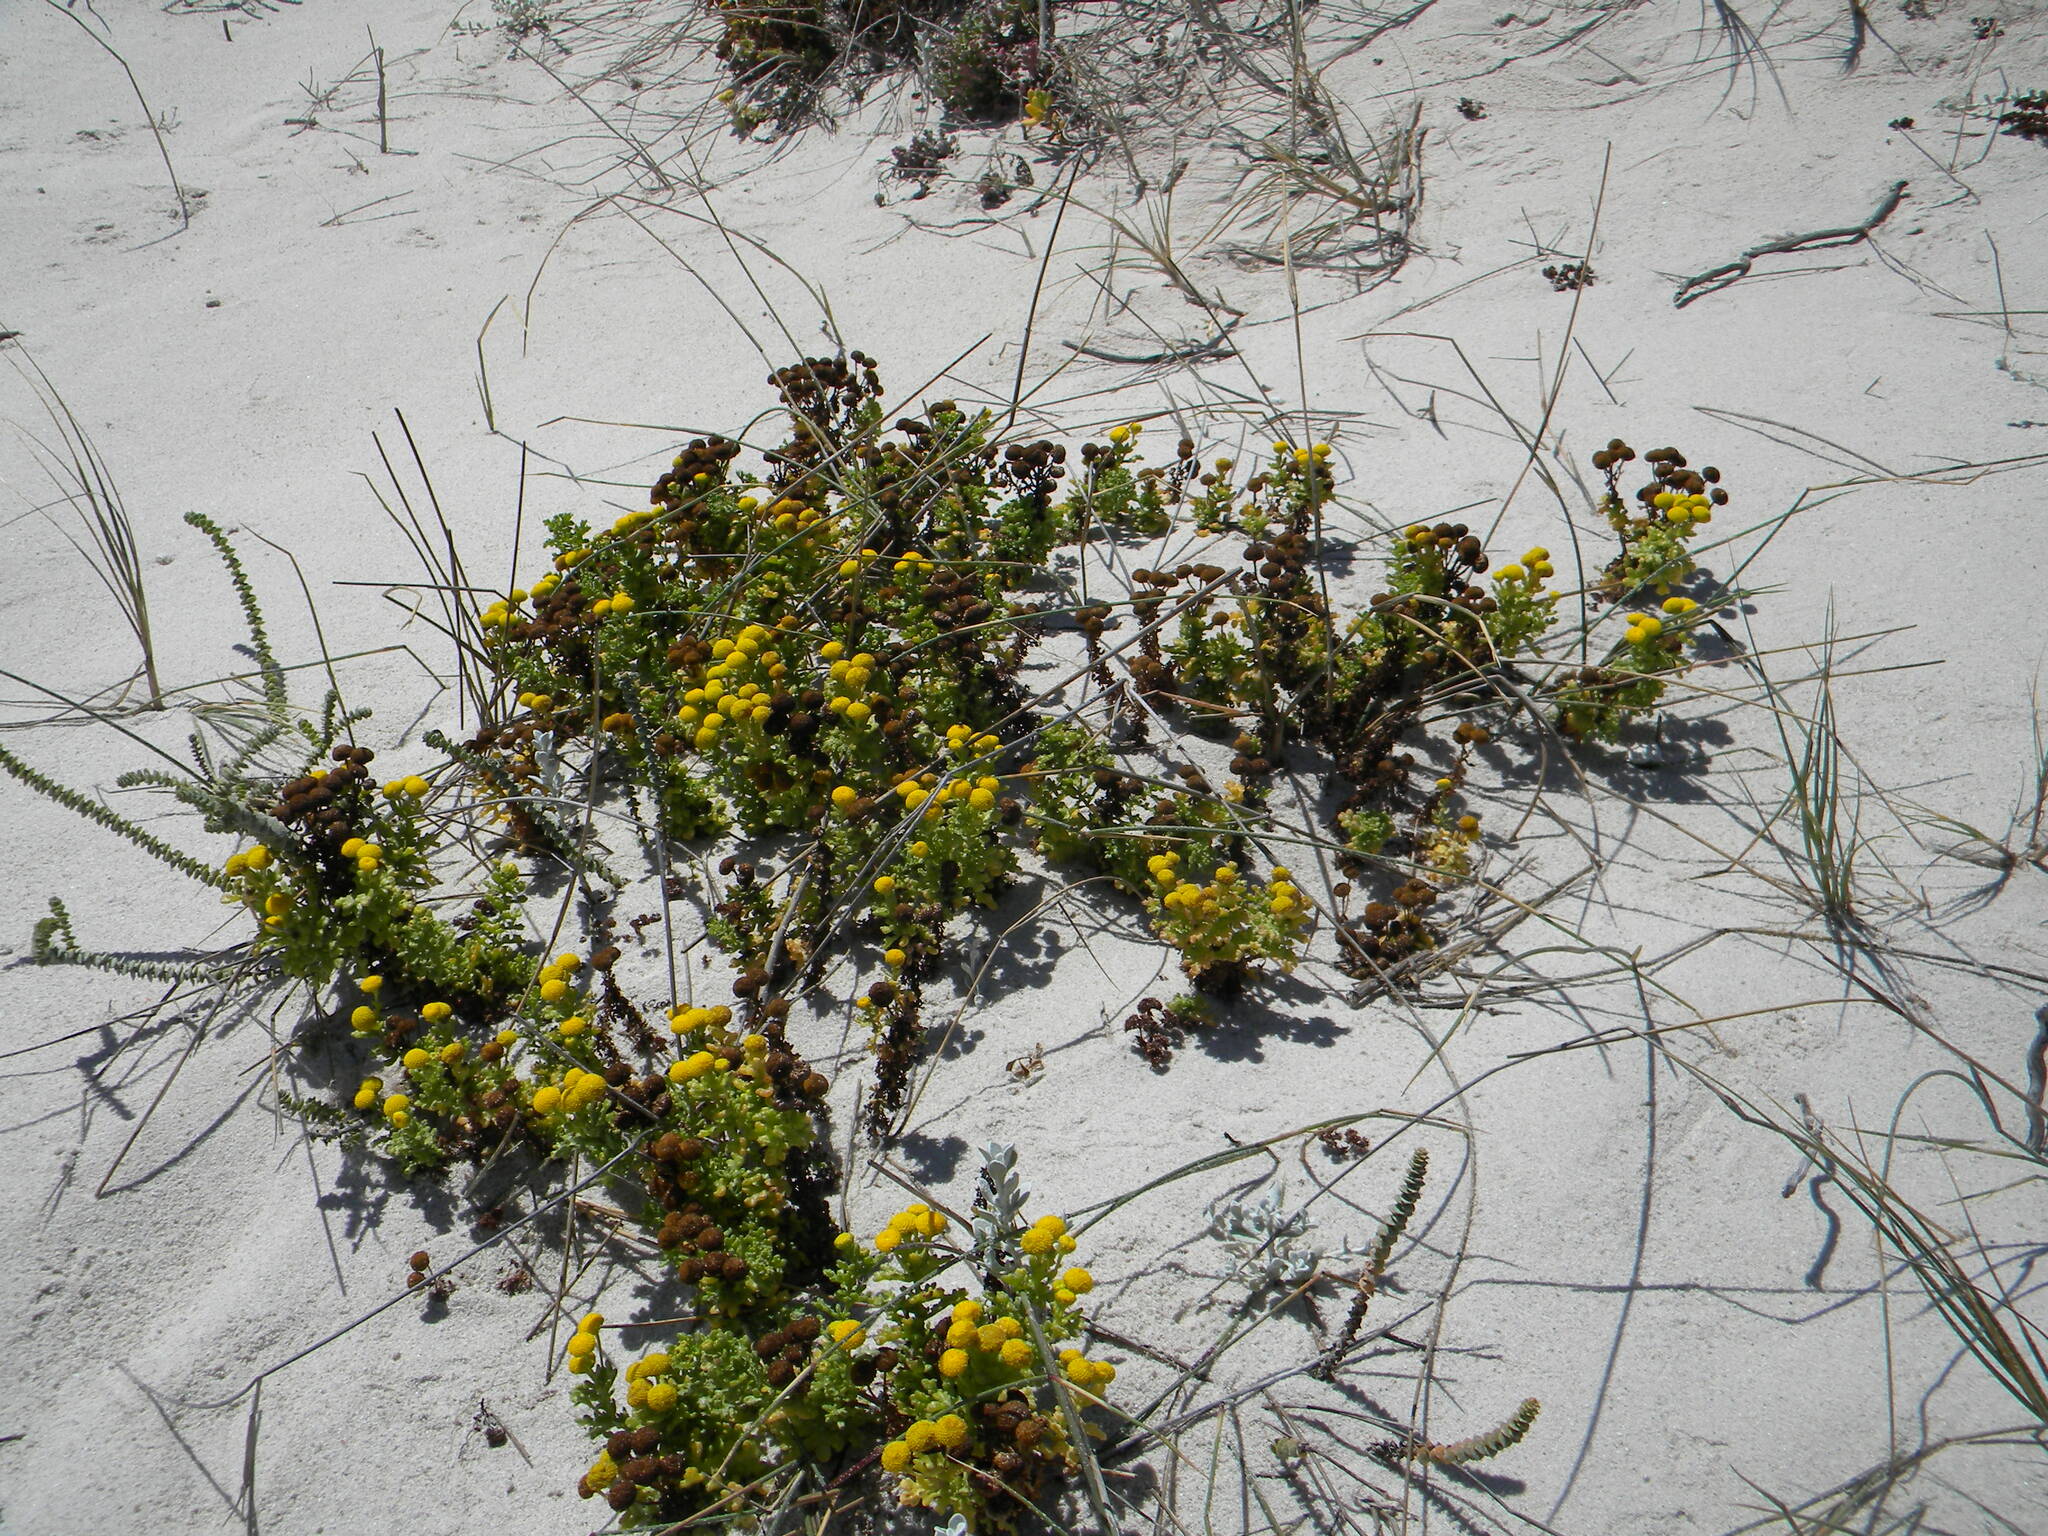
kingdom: Plantae
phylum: Tracheophyta
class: Magnoliopsida
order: Asterales
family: Asteraceae
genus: Oncosiphon
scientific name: Oncosiphon sabulosus
